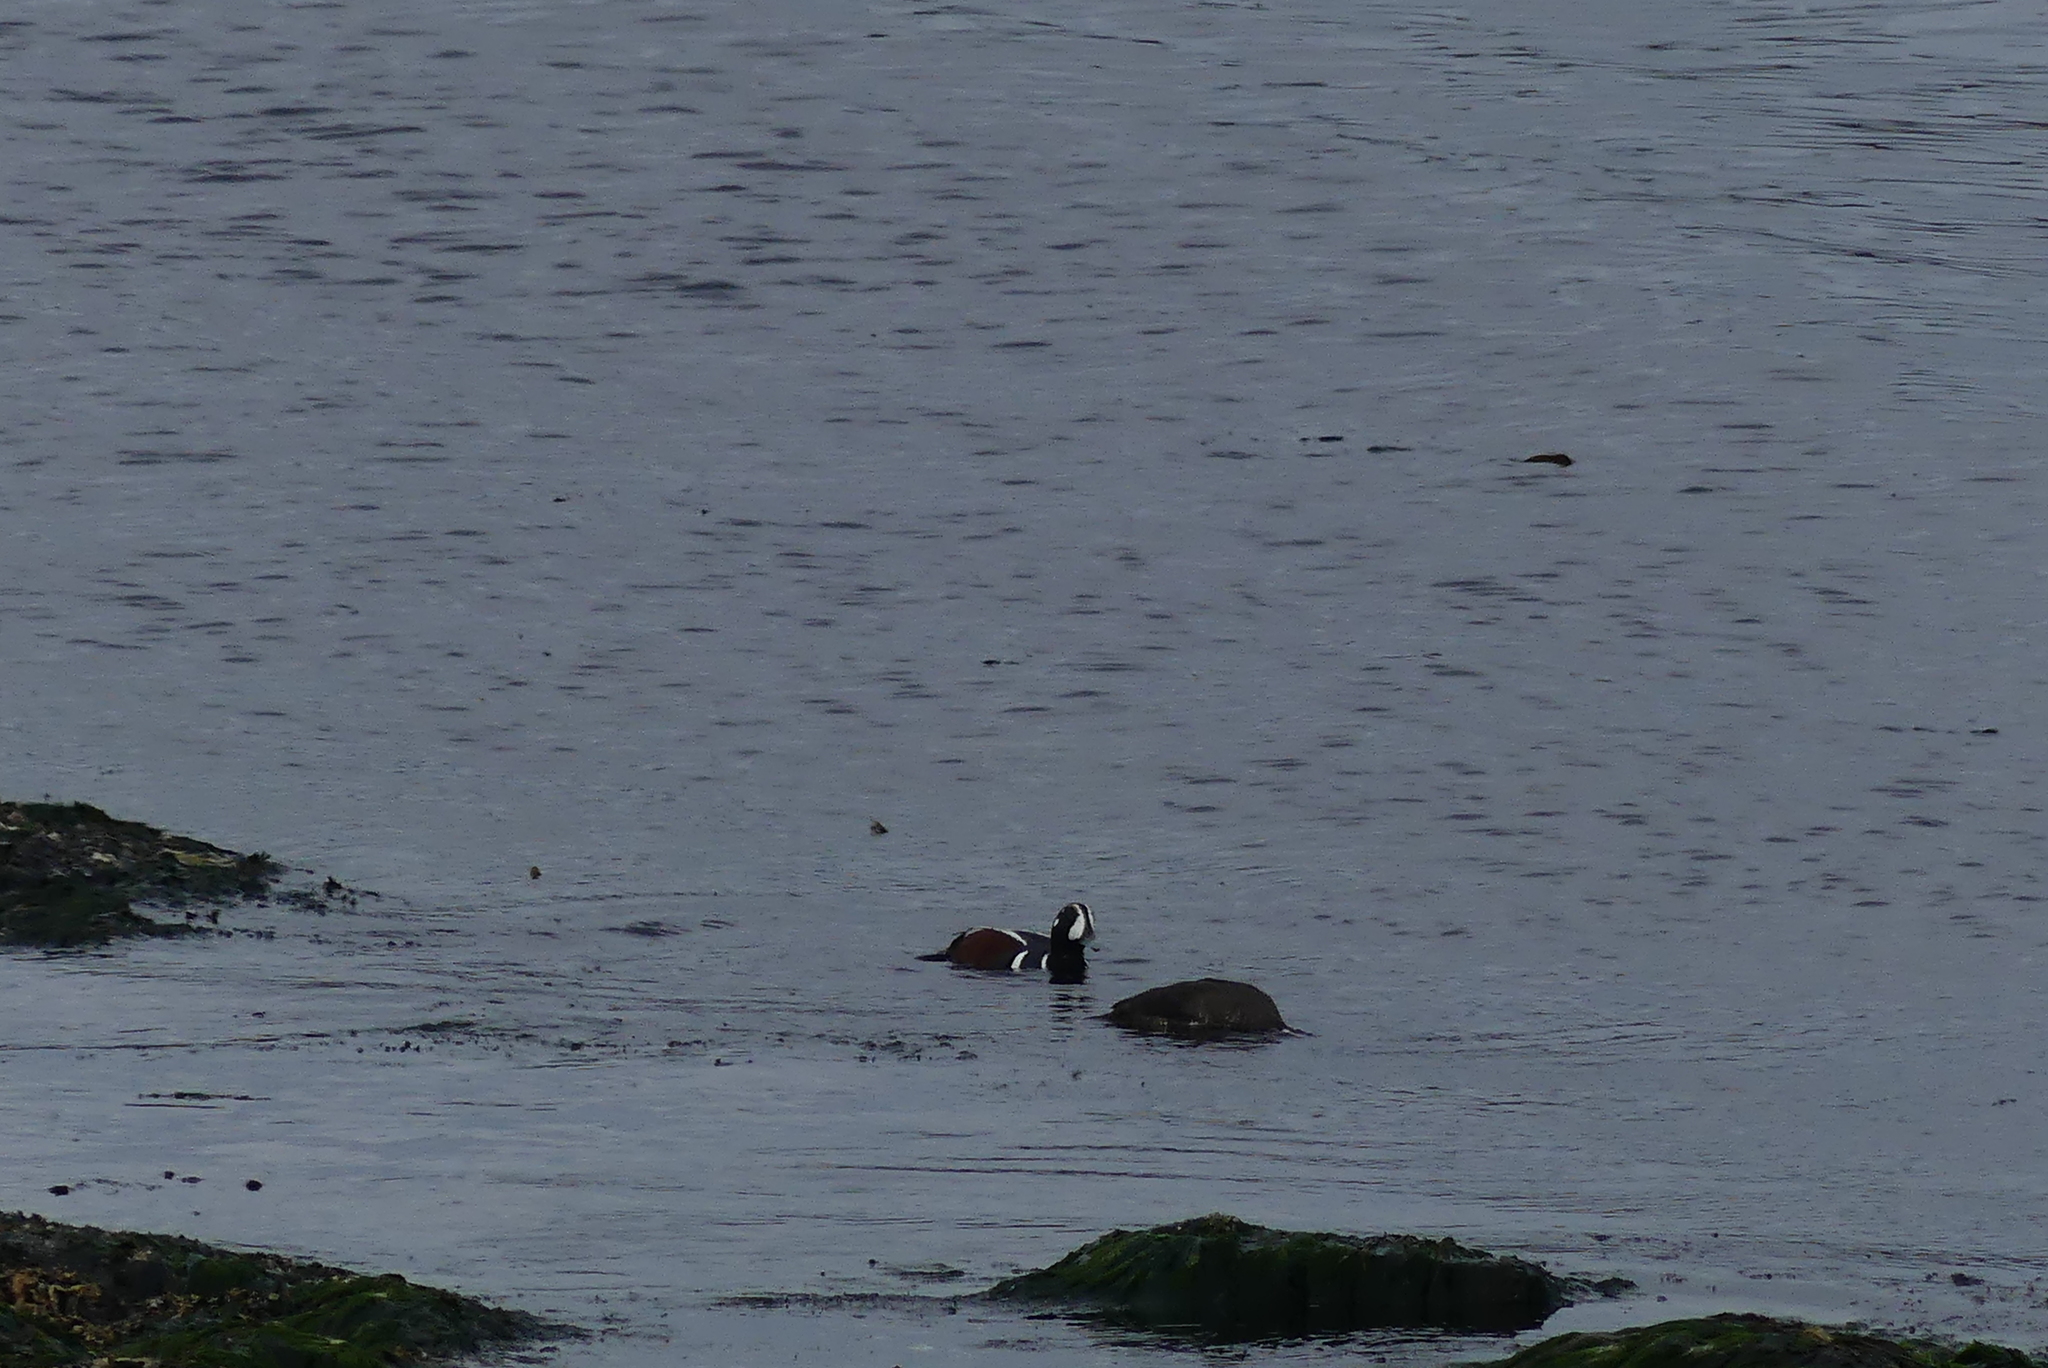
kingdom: Animalia
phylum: Chordata
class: Aves
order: Anseriformes
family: Anatidae
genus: Histrionicus
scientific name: Histrionicus histrionicus
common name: Harlequin duck
